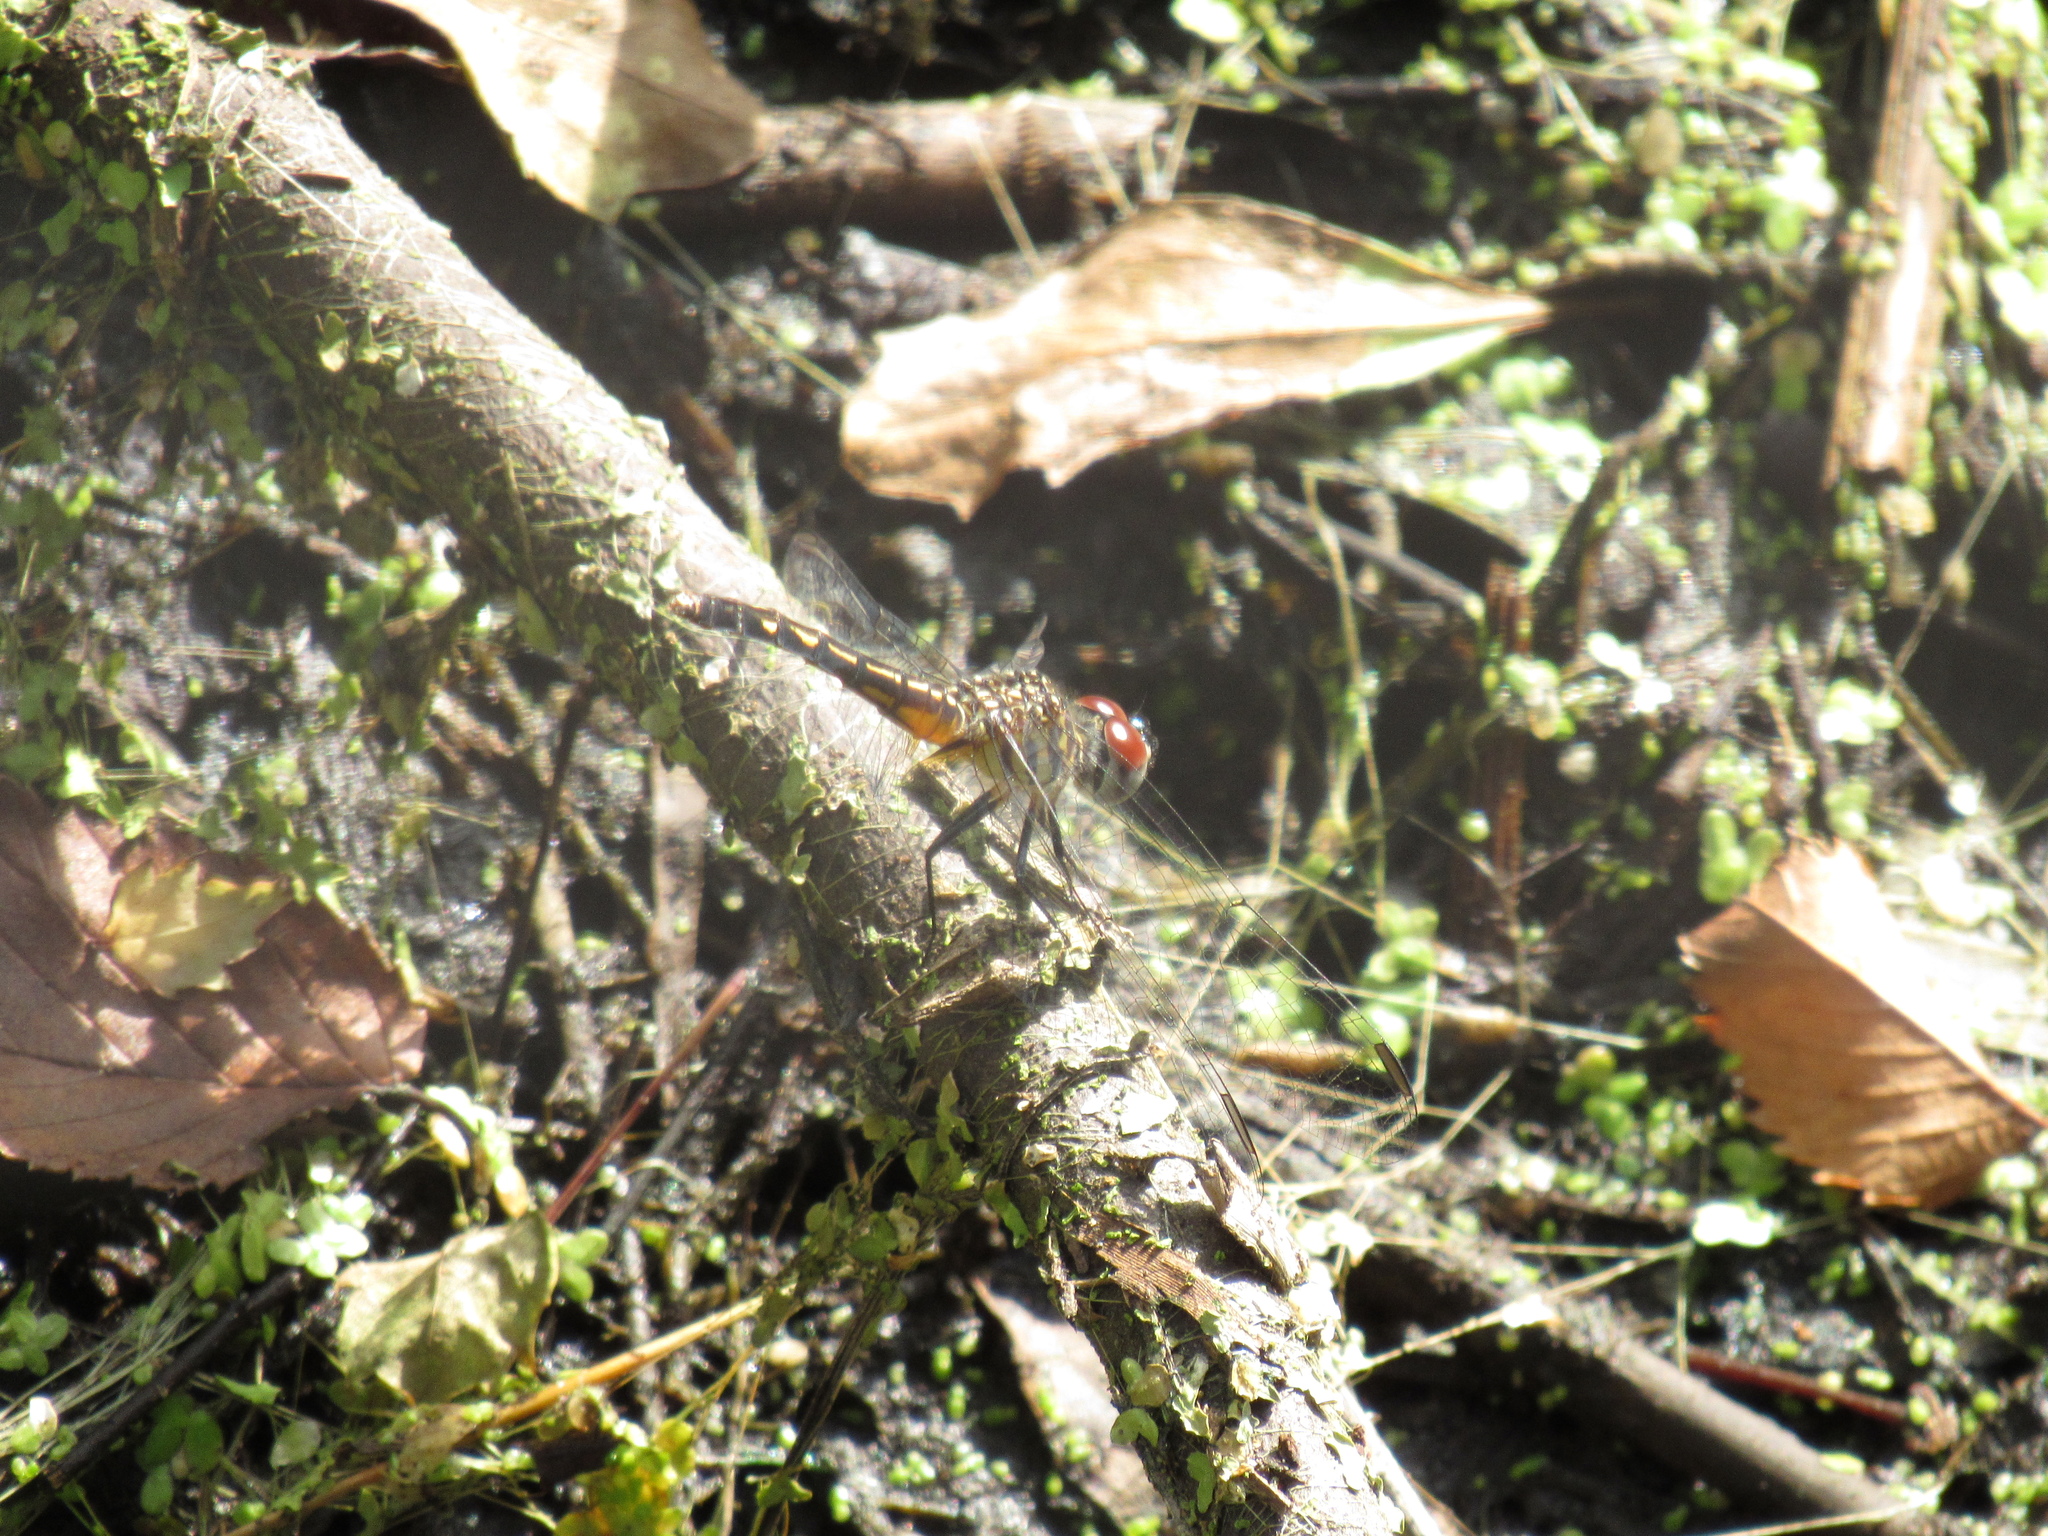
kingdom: Animalia
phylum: Arthropoda
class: Insecta
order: Odonata
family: Libellulidae
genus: Pachydiplax
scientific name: Pachydiplax longipennis
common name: Blue dasher
